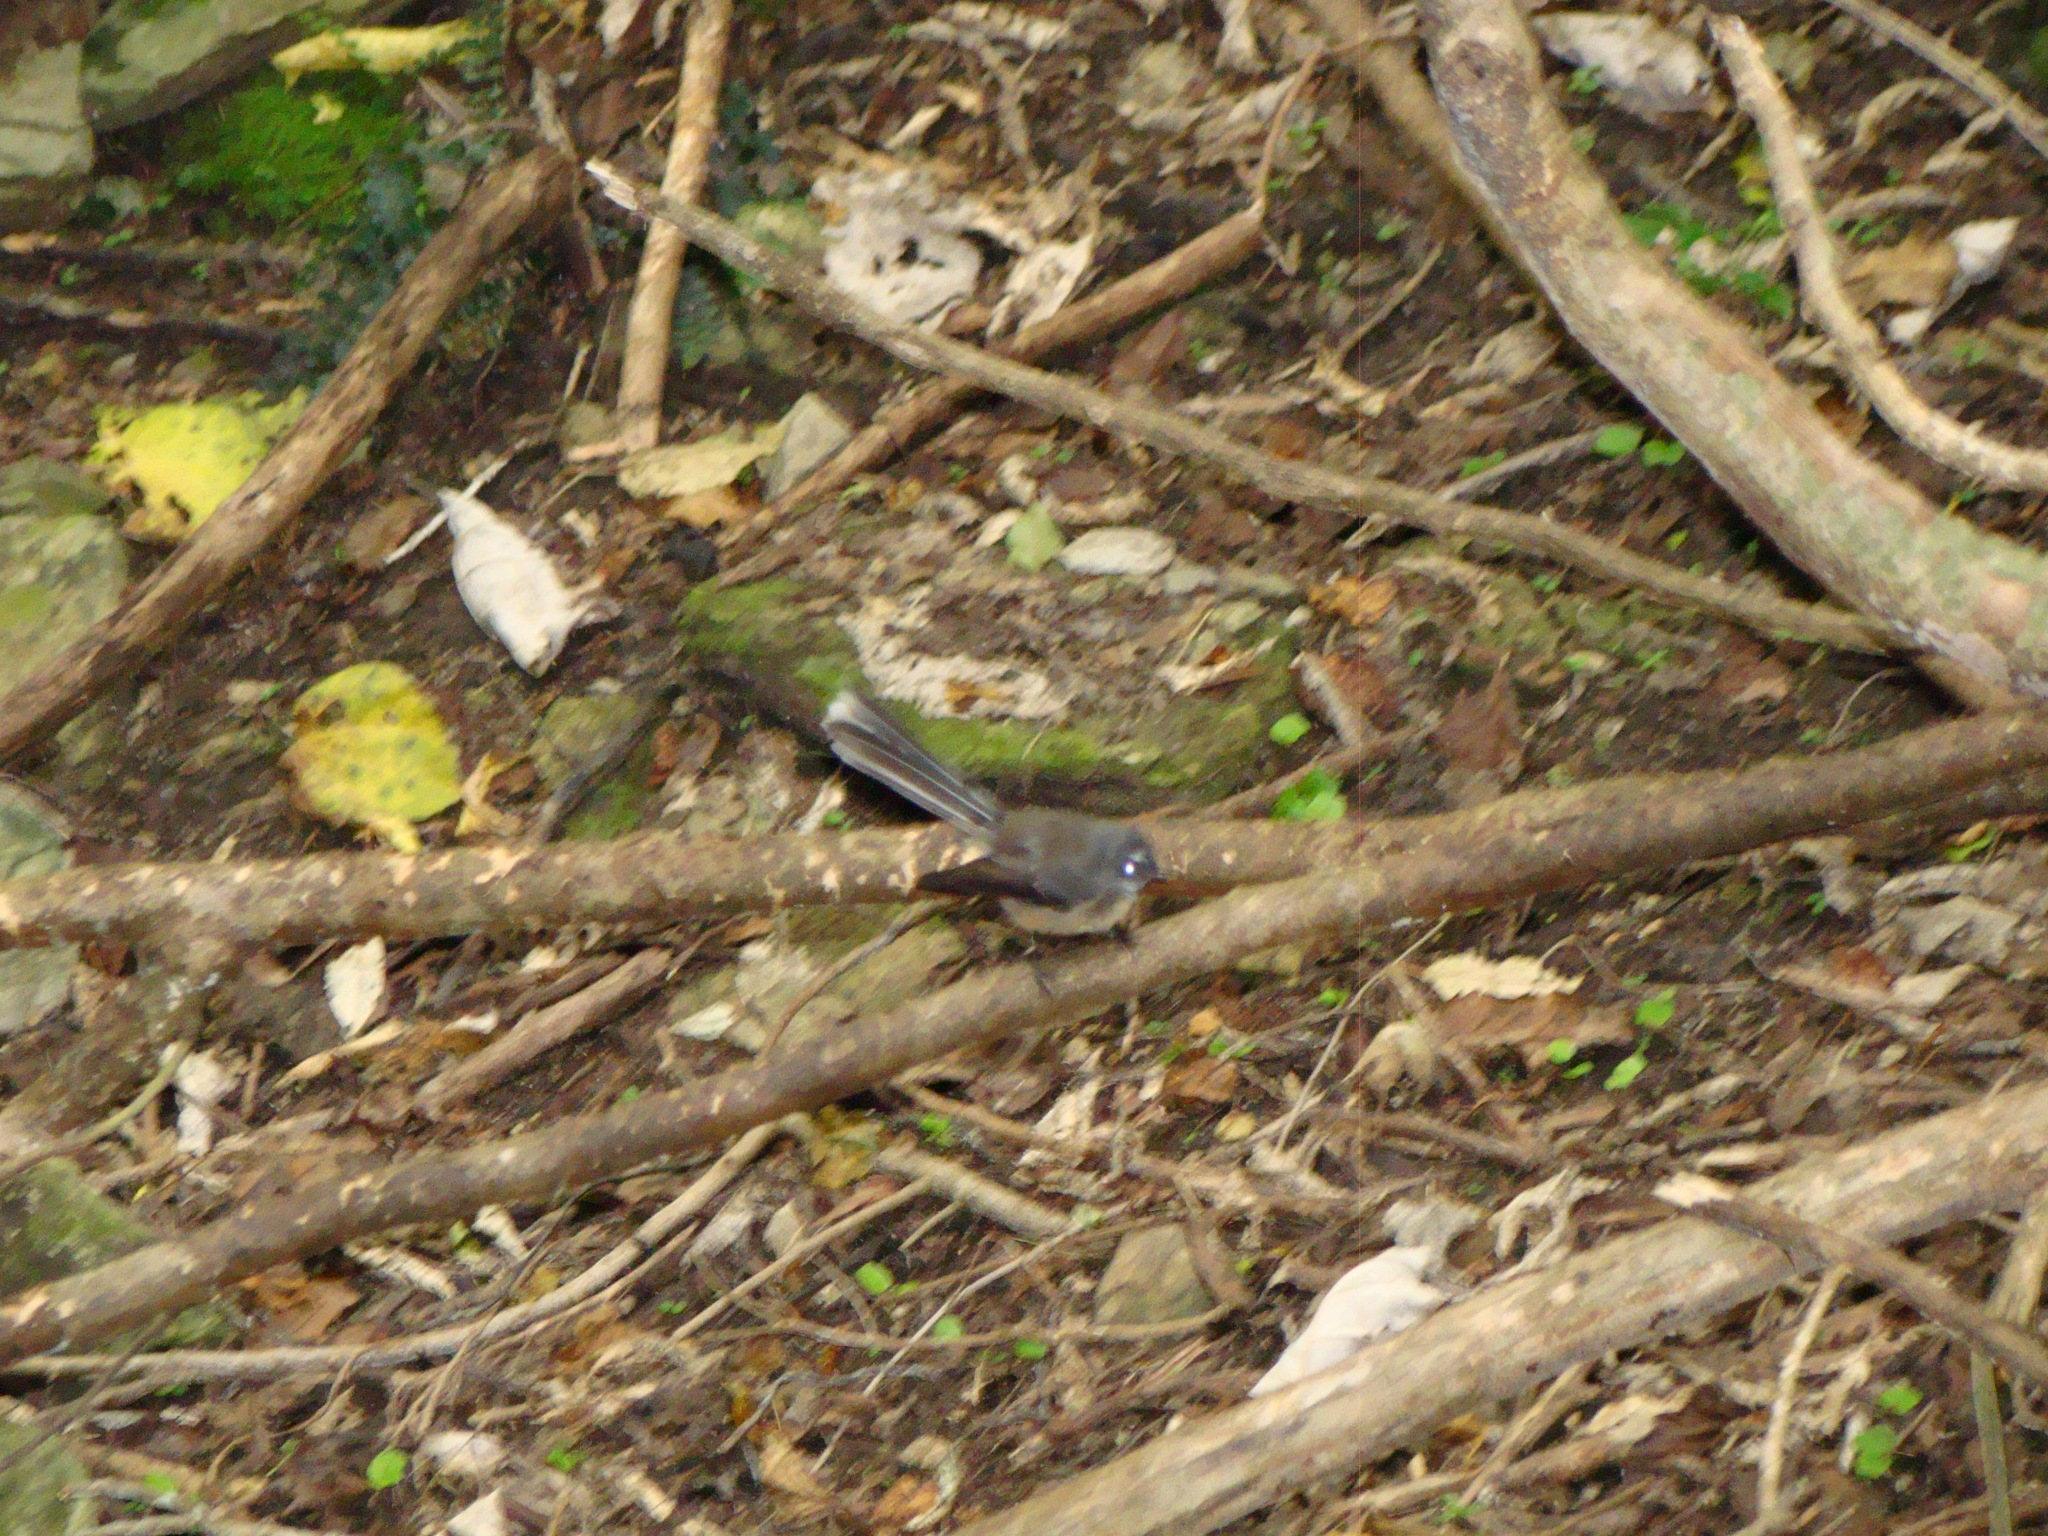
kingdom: Animalia
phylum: Chordata
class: Aves
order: Passeriformes
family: Rhipiduridae
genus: Rhipidura
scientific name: Rhipidura fuliginosa
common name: New zealand fantail
